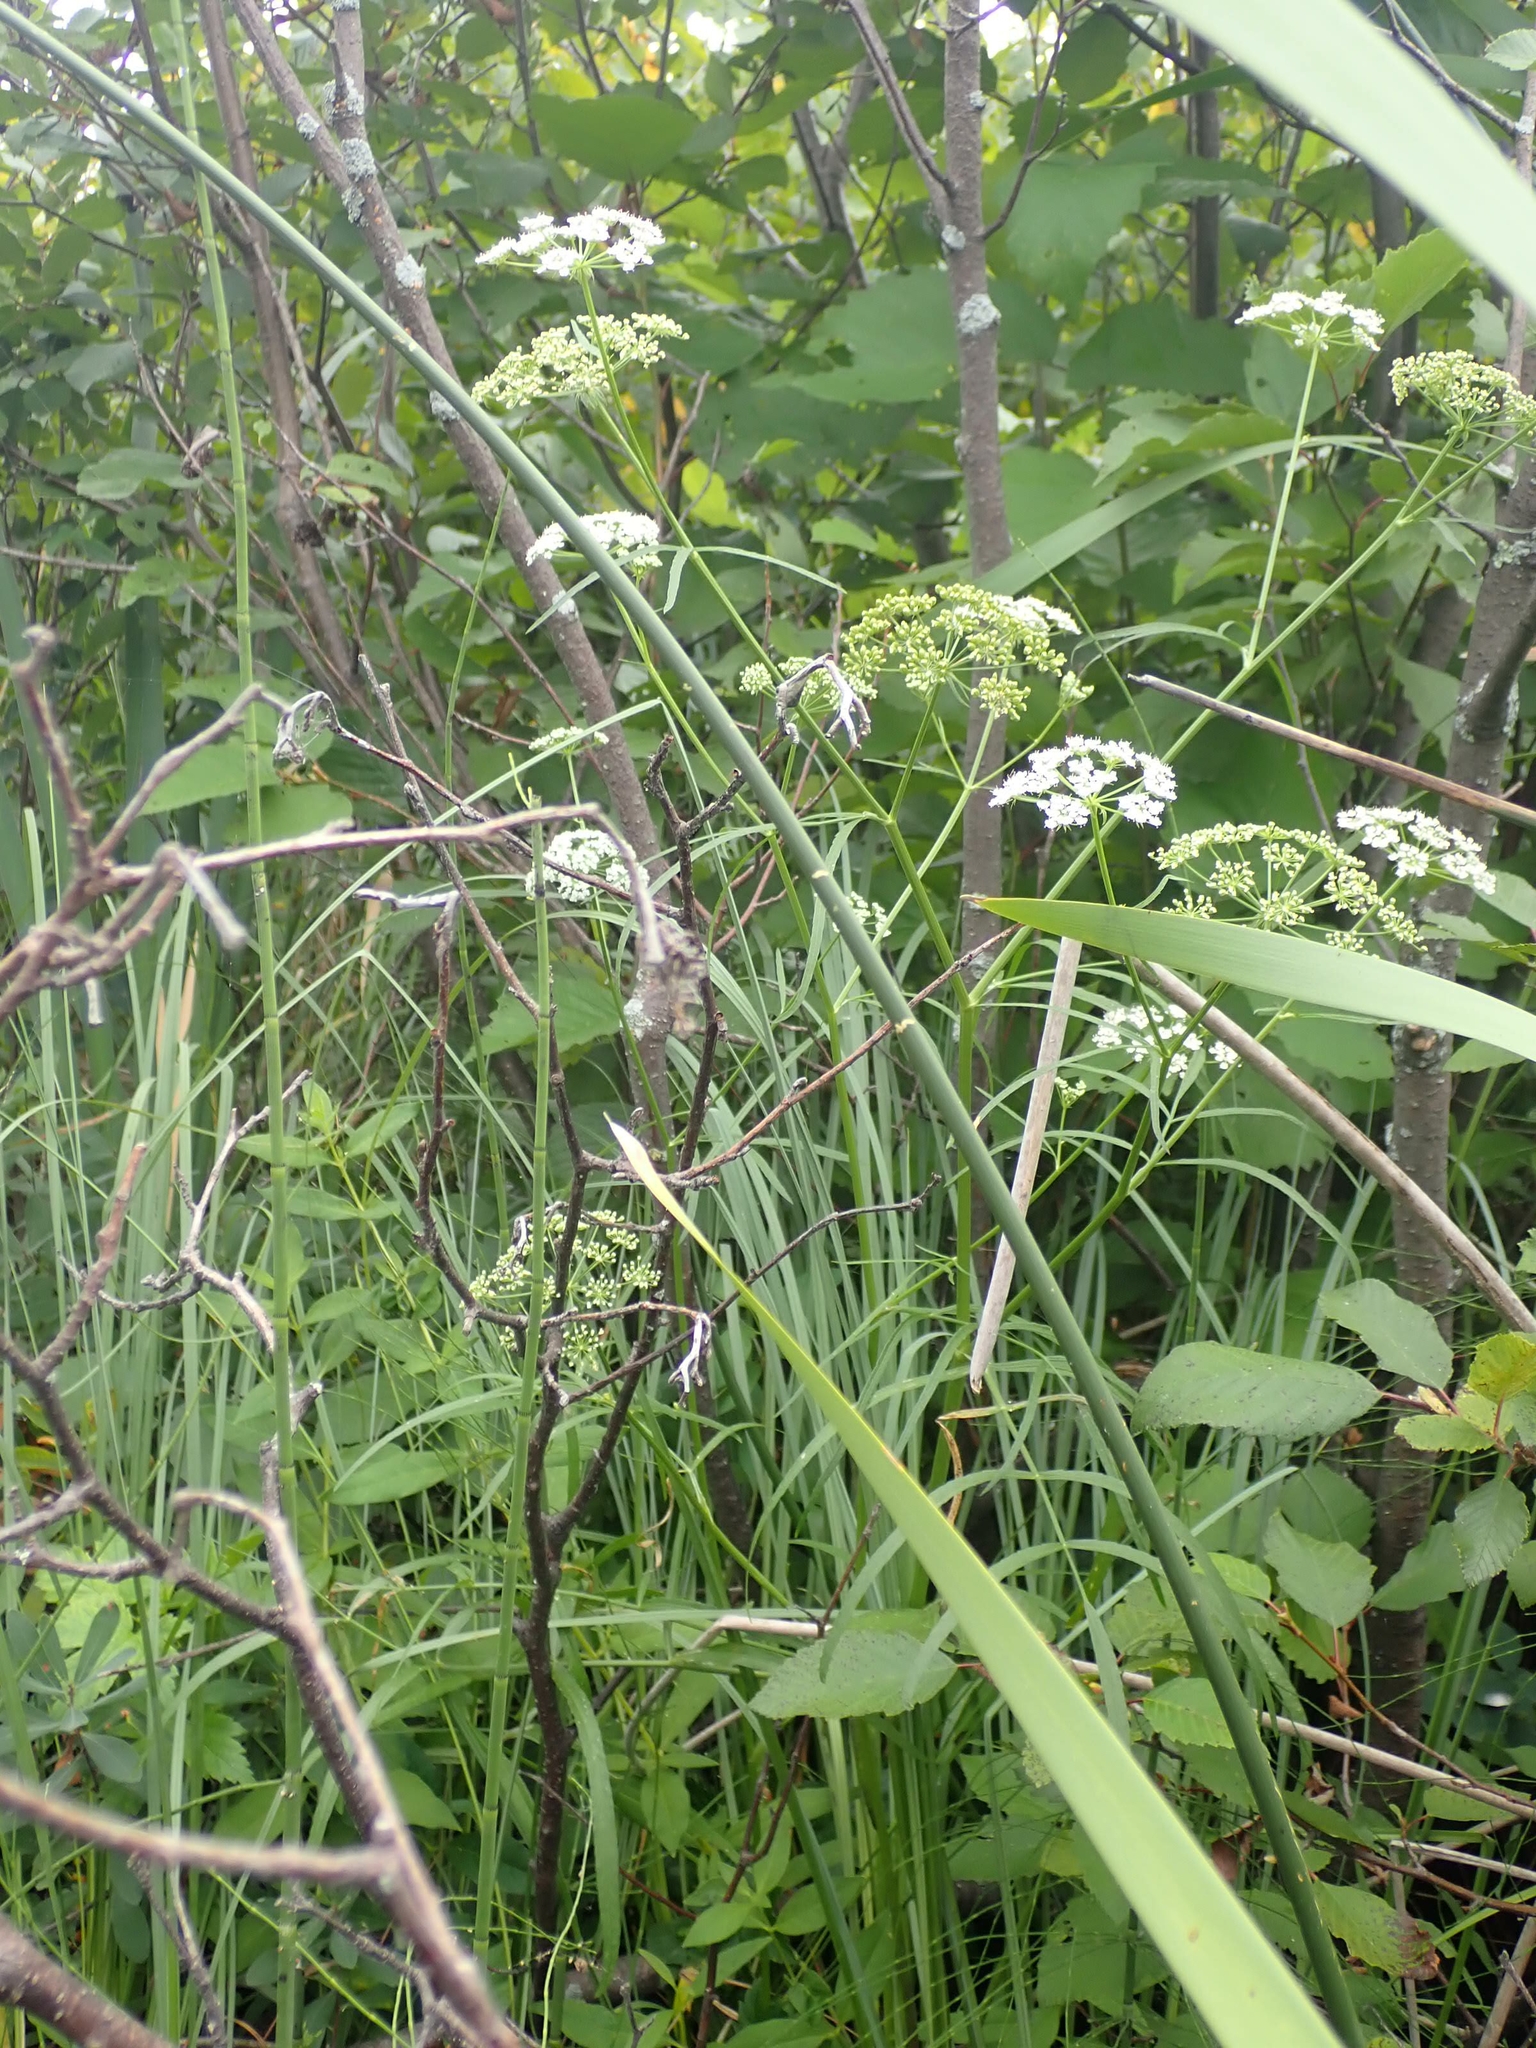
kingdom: Plantae
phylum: Tracheophyta
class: Magnoliopsida
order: Apiales
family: Apiaceae
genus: Cicuta
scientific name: Cicuta maculata
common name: Spotted cowbane
